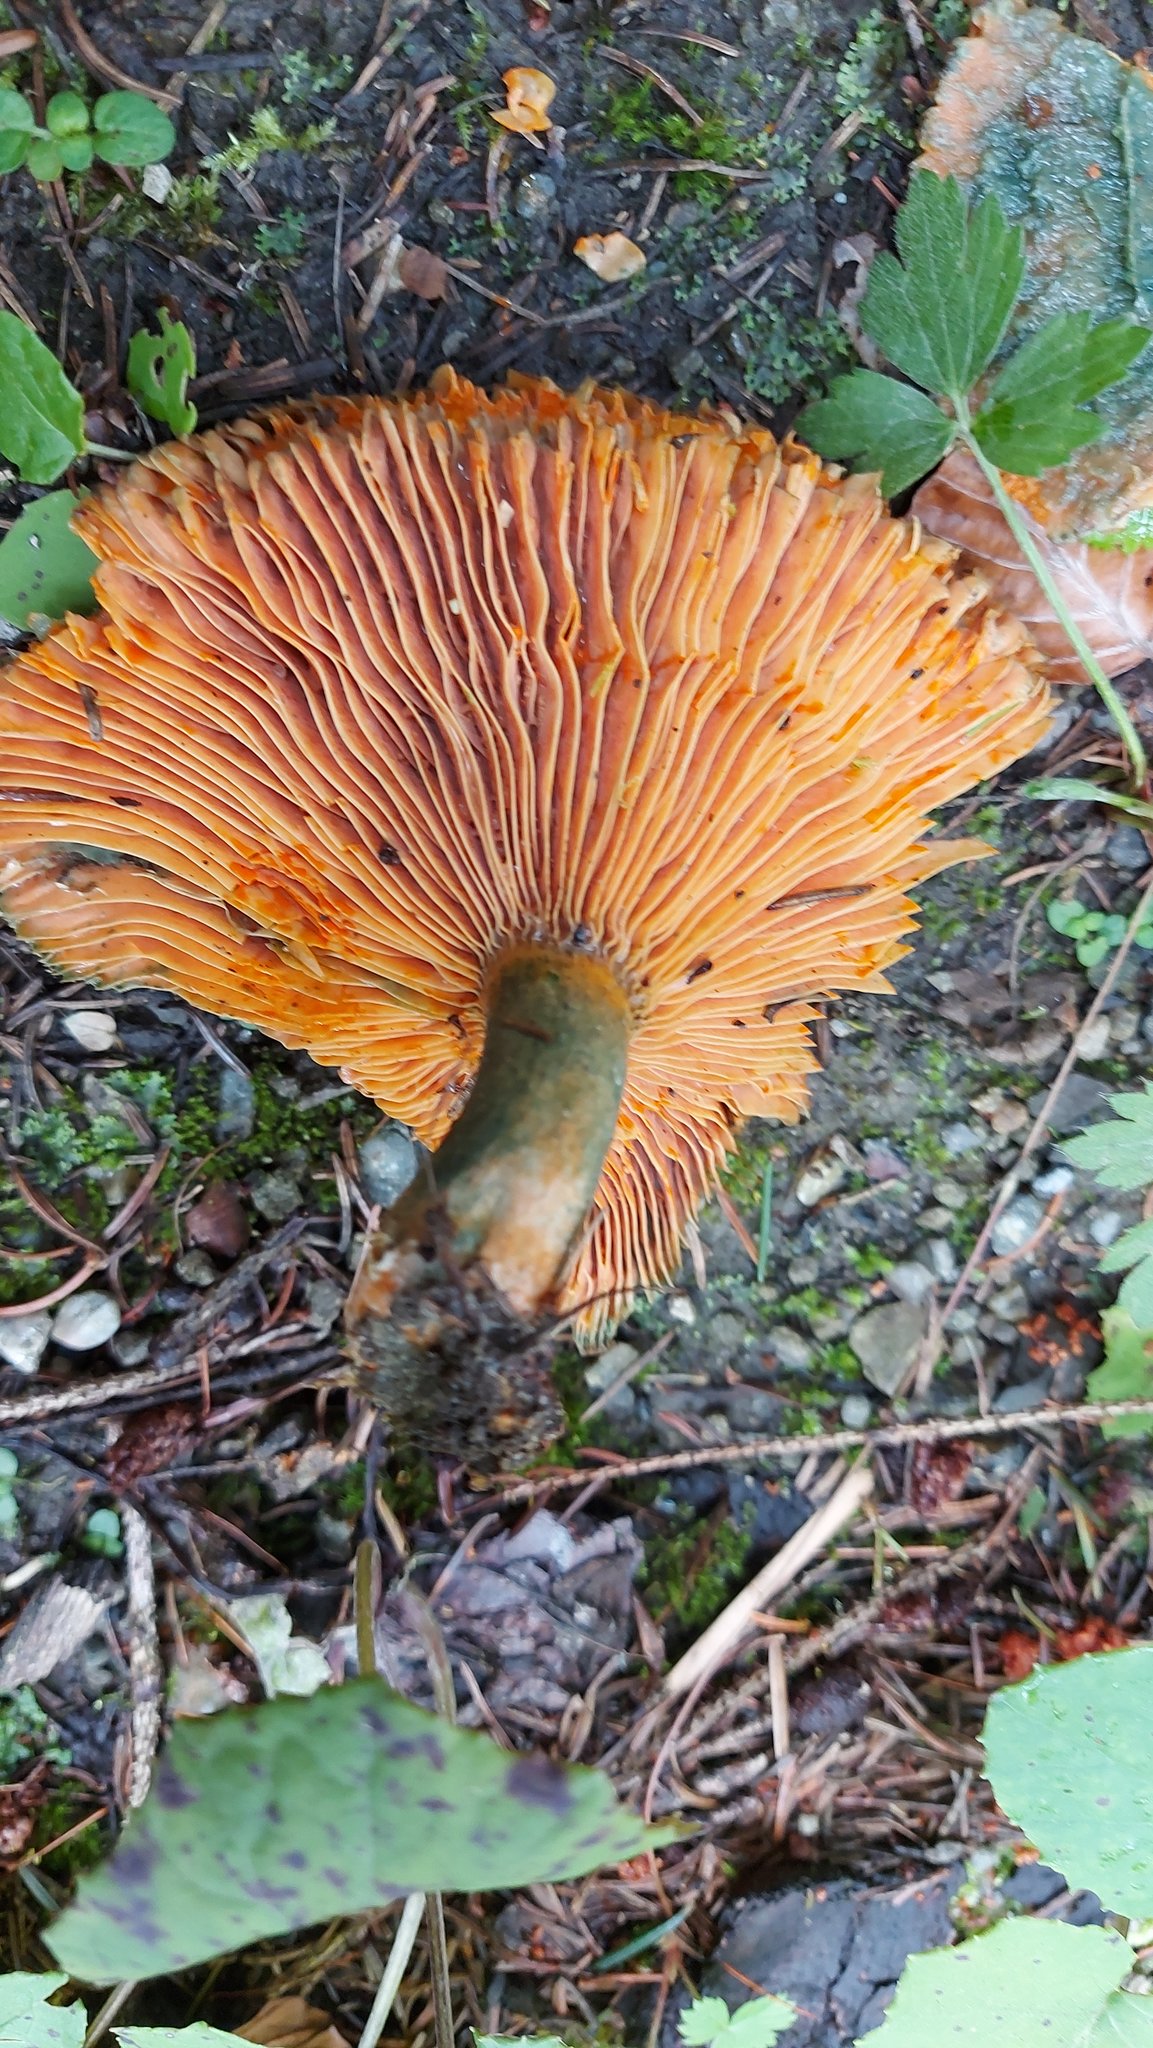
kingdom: Fungi
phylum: Basidiomycota
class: Agaricomycetes
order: Russulales
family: Russulaceae
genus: Lactarius
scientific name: Lactarius deterrimus
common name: False saffron milkcap
